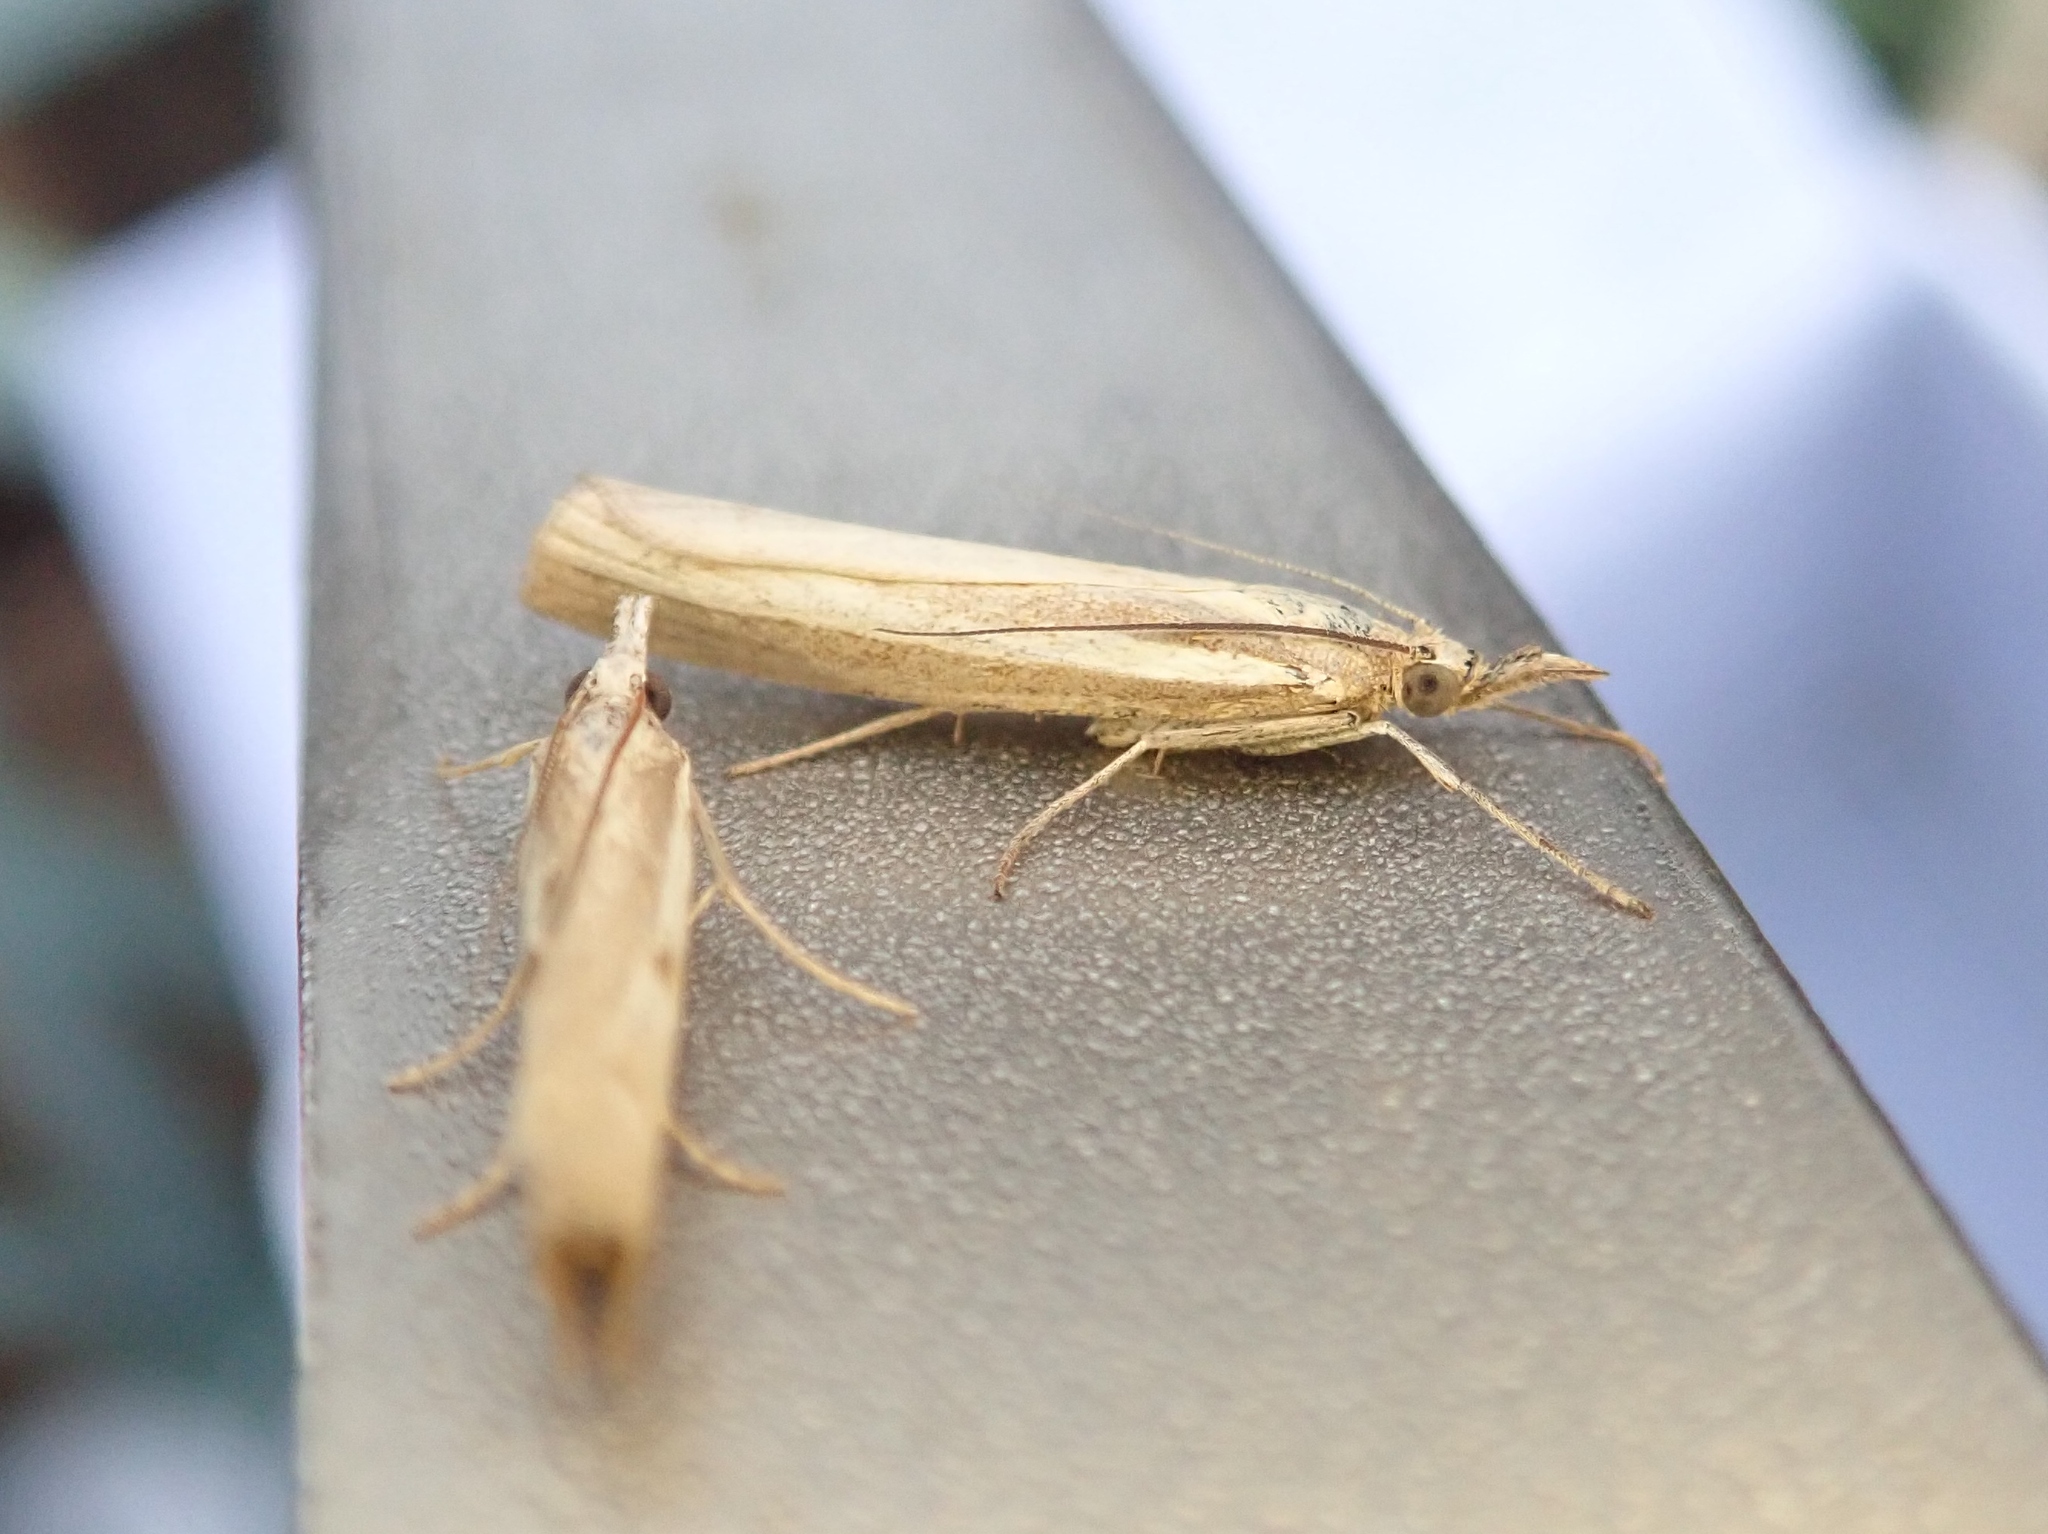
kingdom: Animalia
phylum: Arthropoda
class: Insecta
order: Lepidoptera
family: Crambidae
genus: Agriphila
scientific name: Agriphila tristellus
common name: Common grass-veneer
